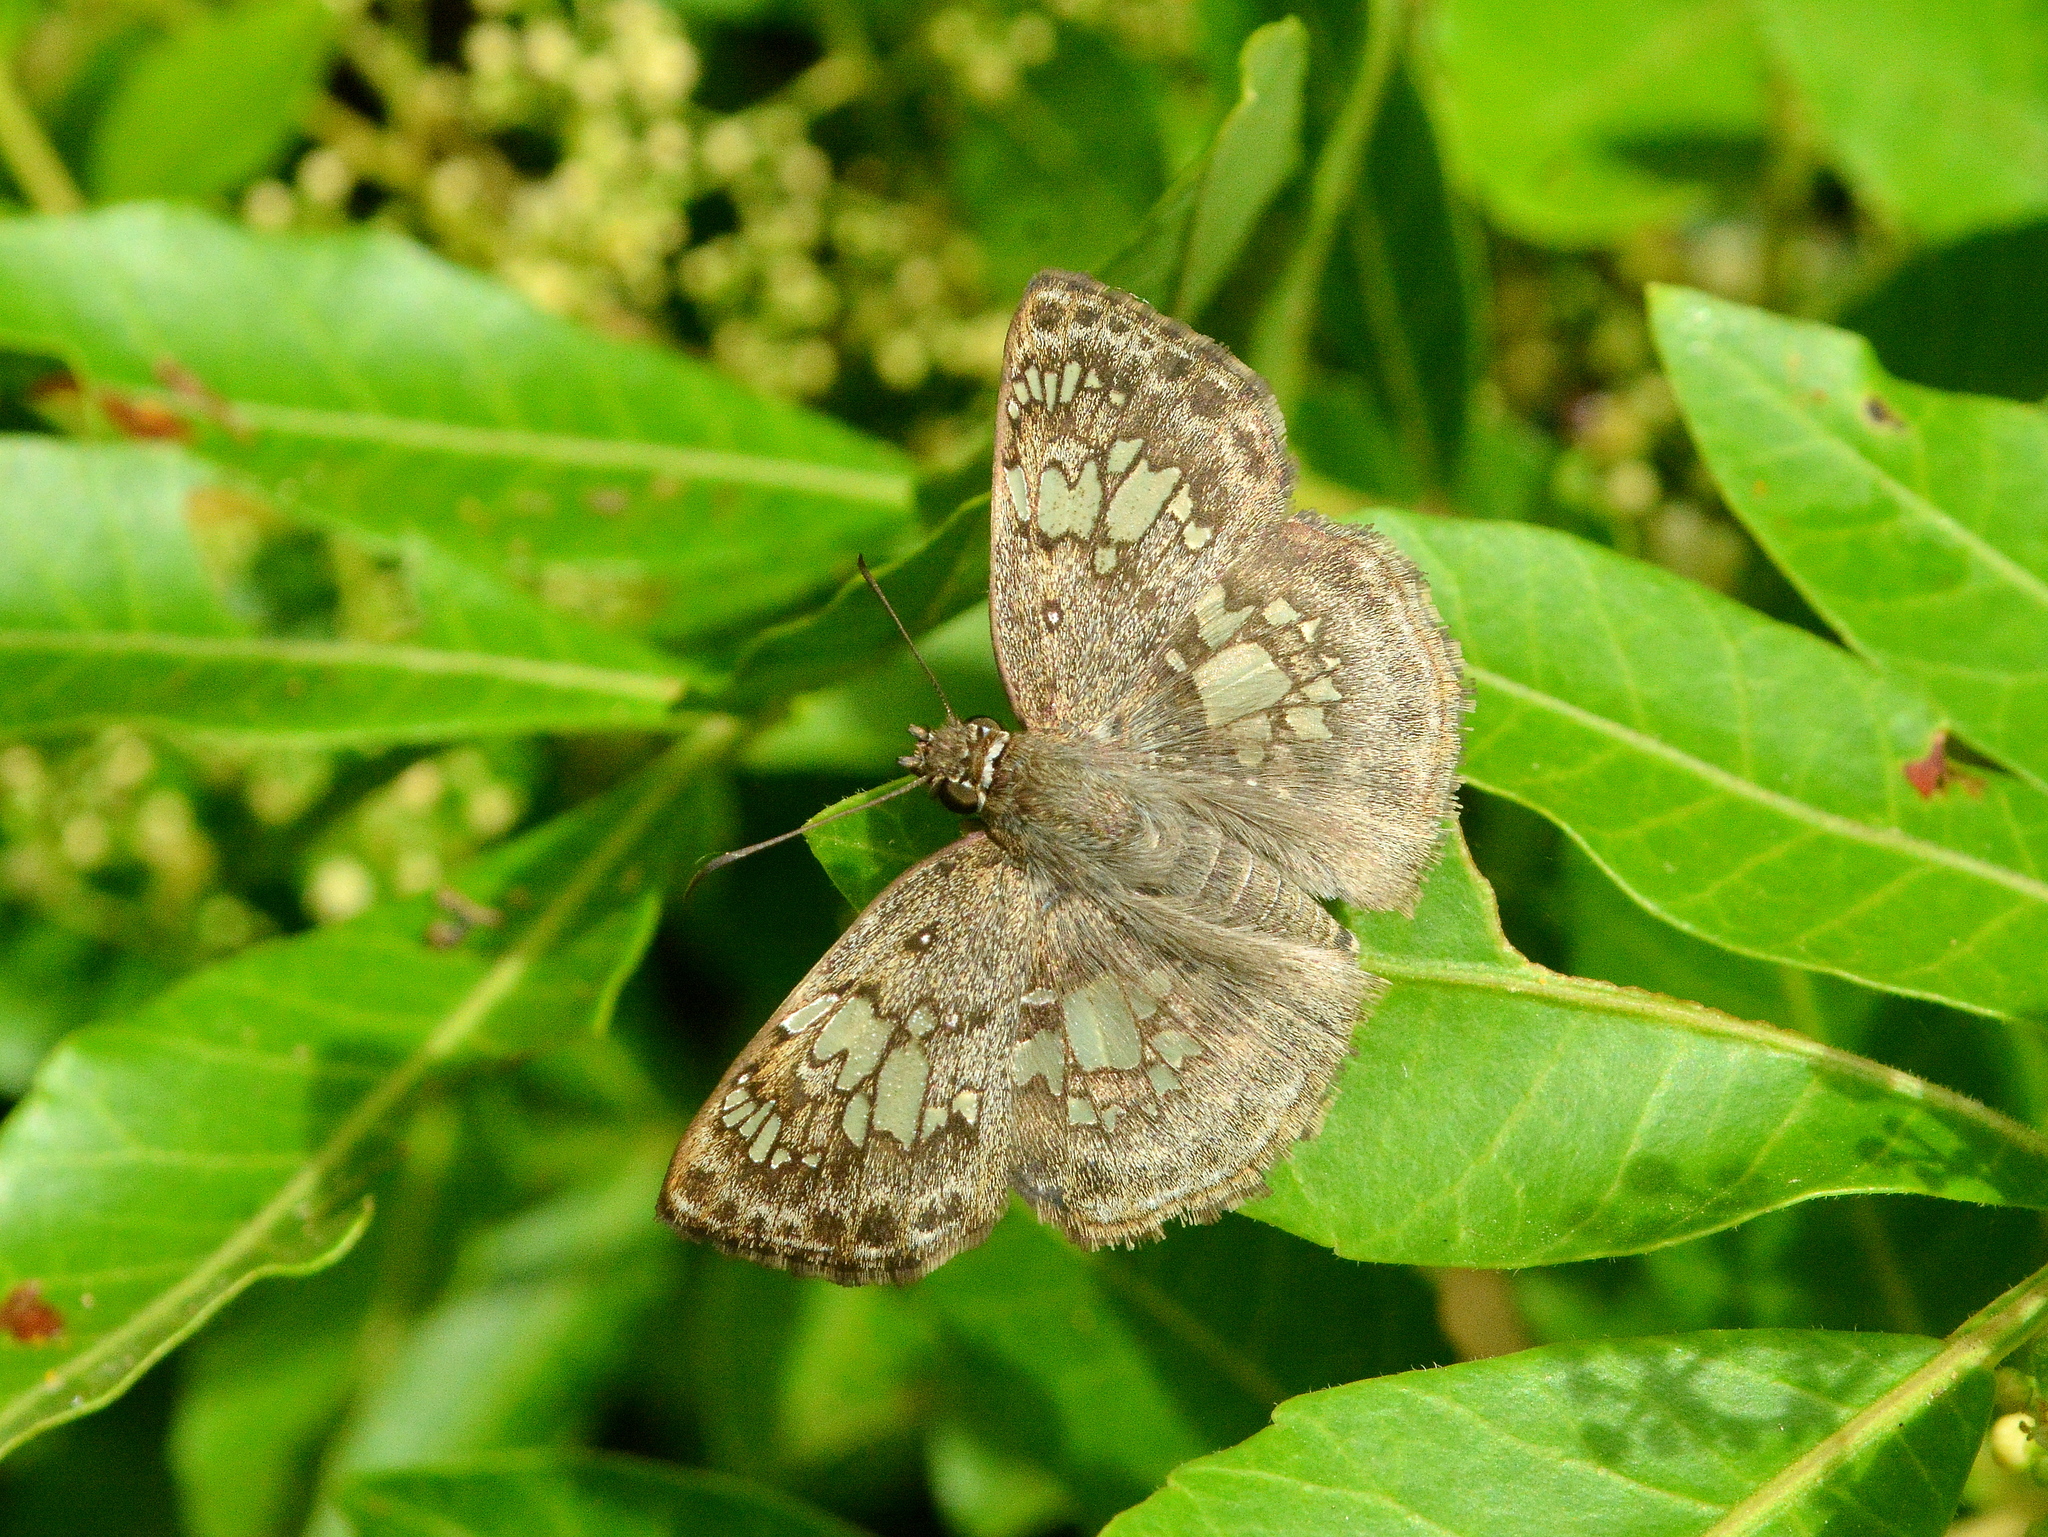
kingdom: Animalia
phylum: Arthropoda
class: Insecta
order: Lepidoptera
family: Hesperiidae
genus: Xenophanes
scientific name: Xenophanes tryxus
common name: Glassy-winged skipper
